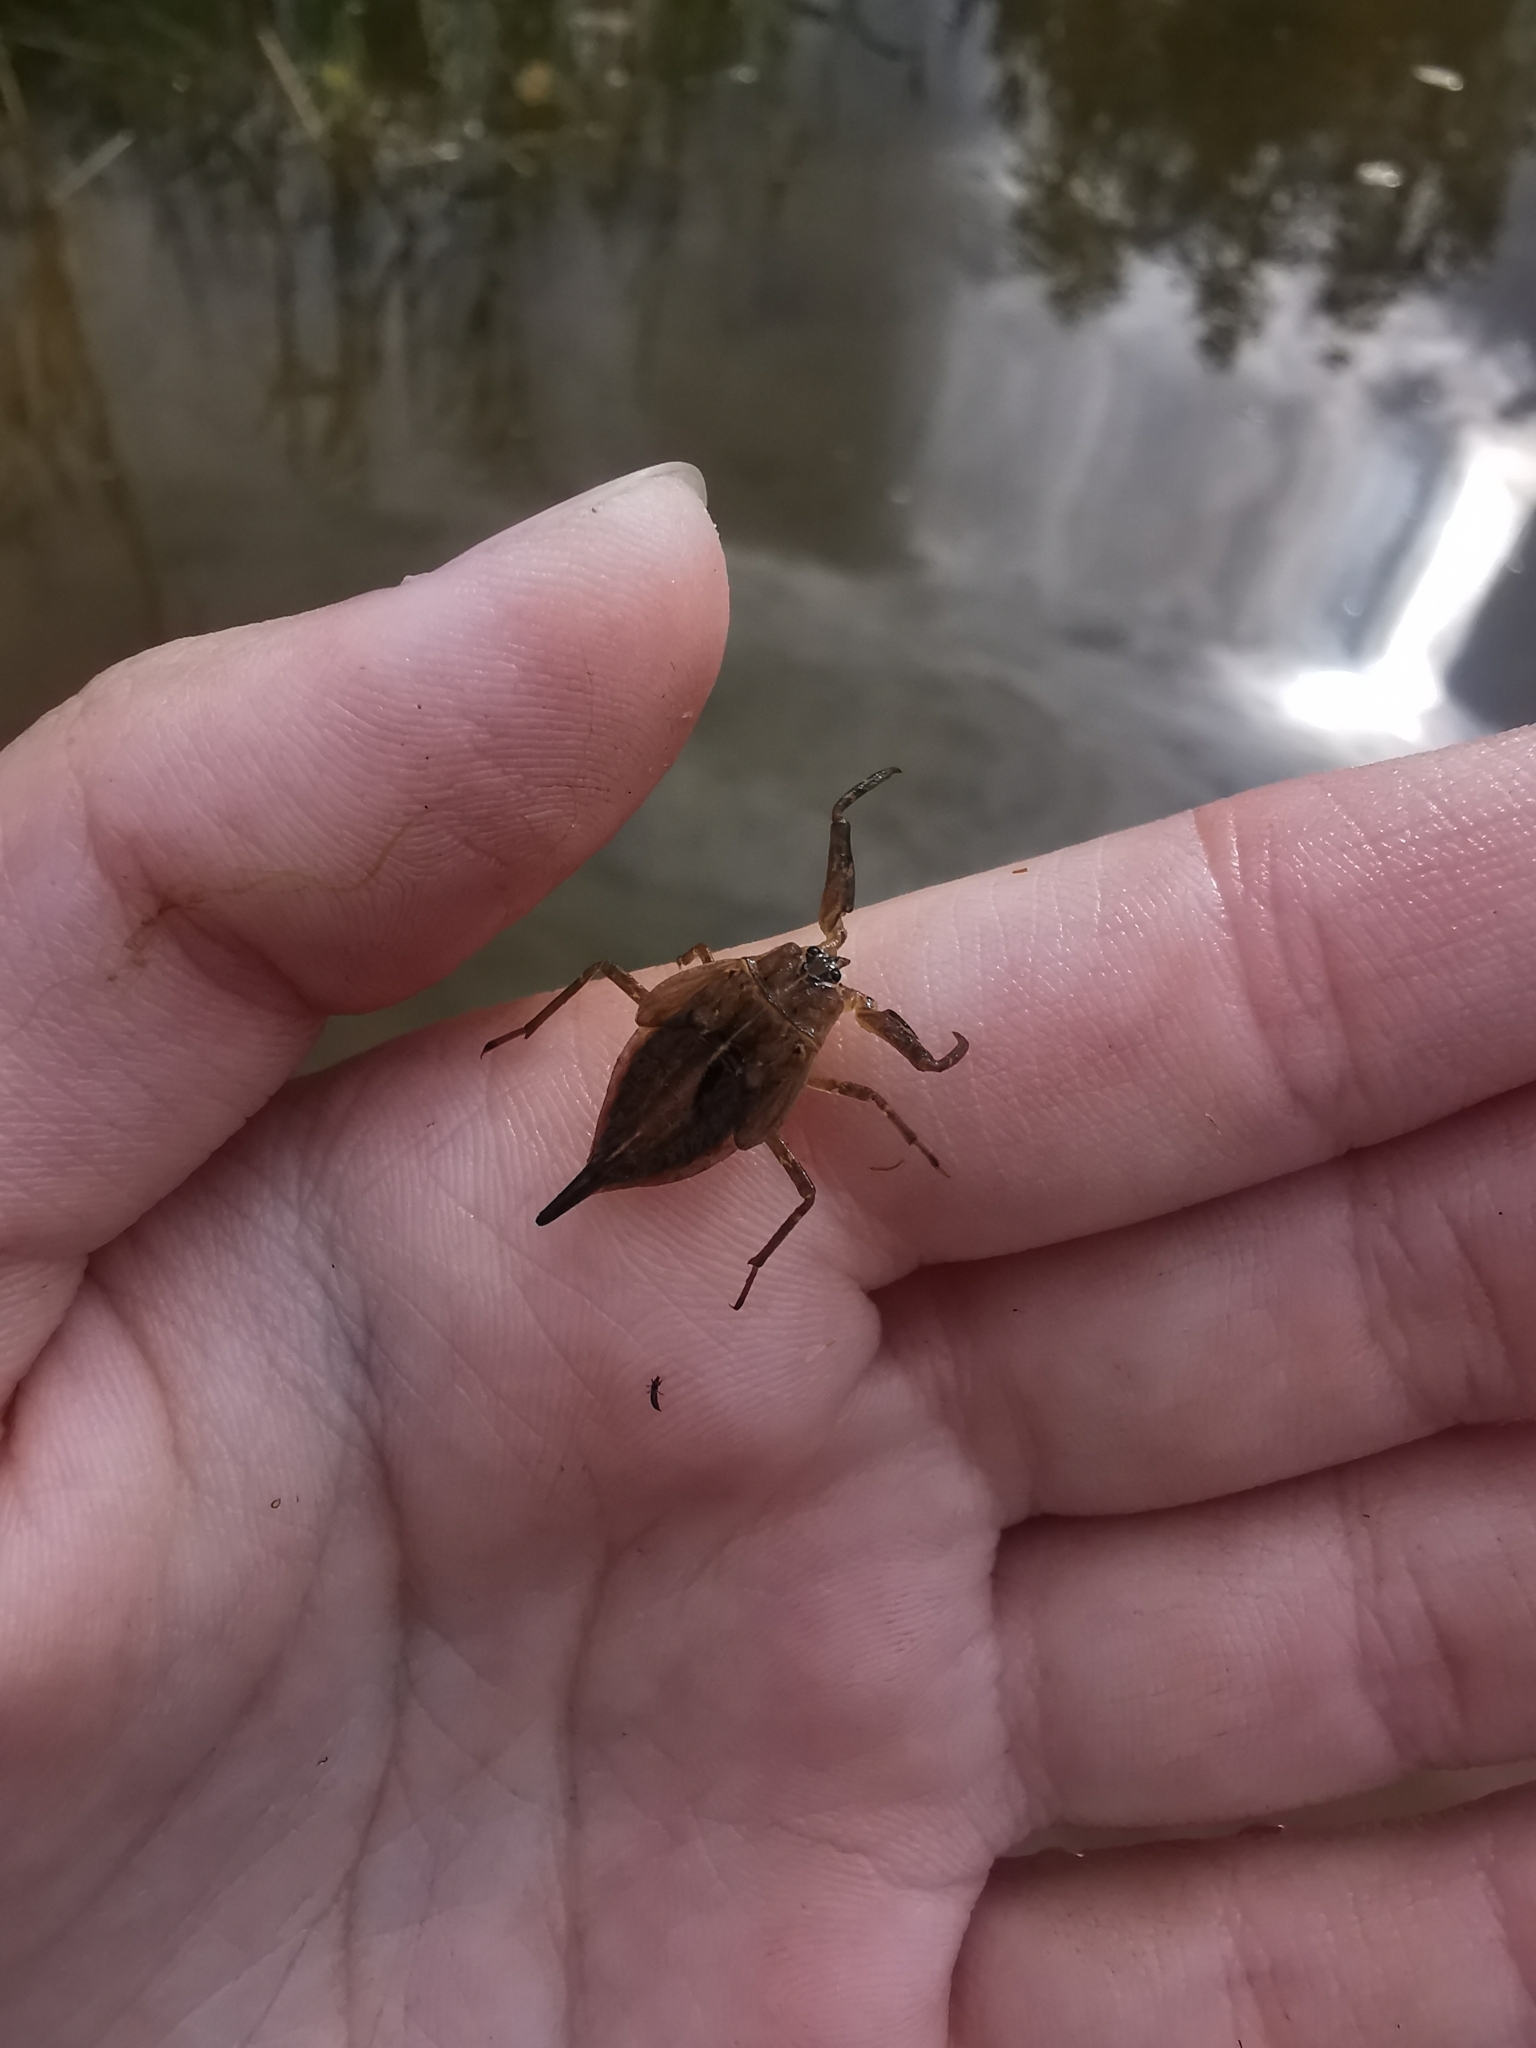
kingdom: Animalia
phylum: Arthropoda
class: Insecta
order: Hemiptera
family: Nepidae
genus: Nepa
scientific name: Nepa cinerea
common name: Water scorpion
